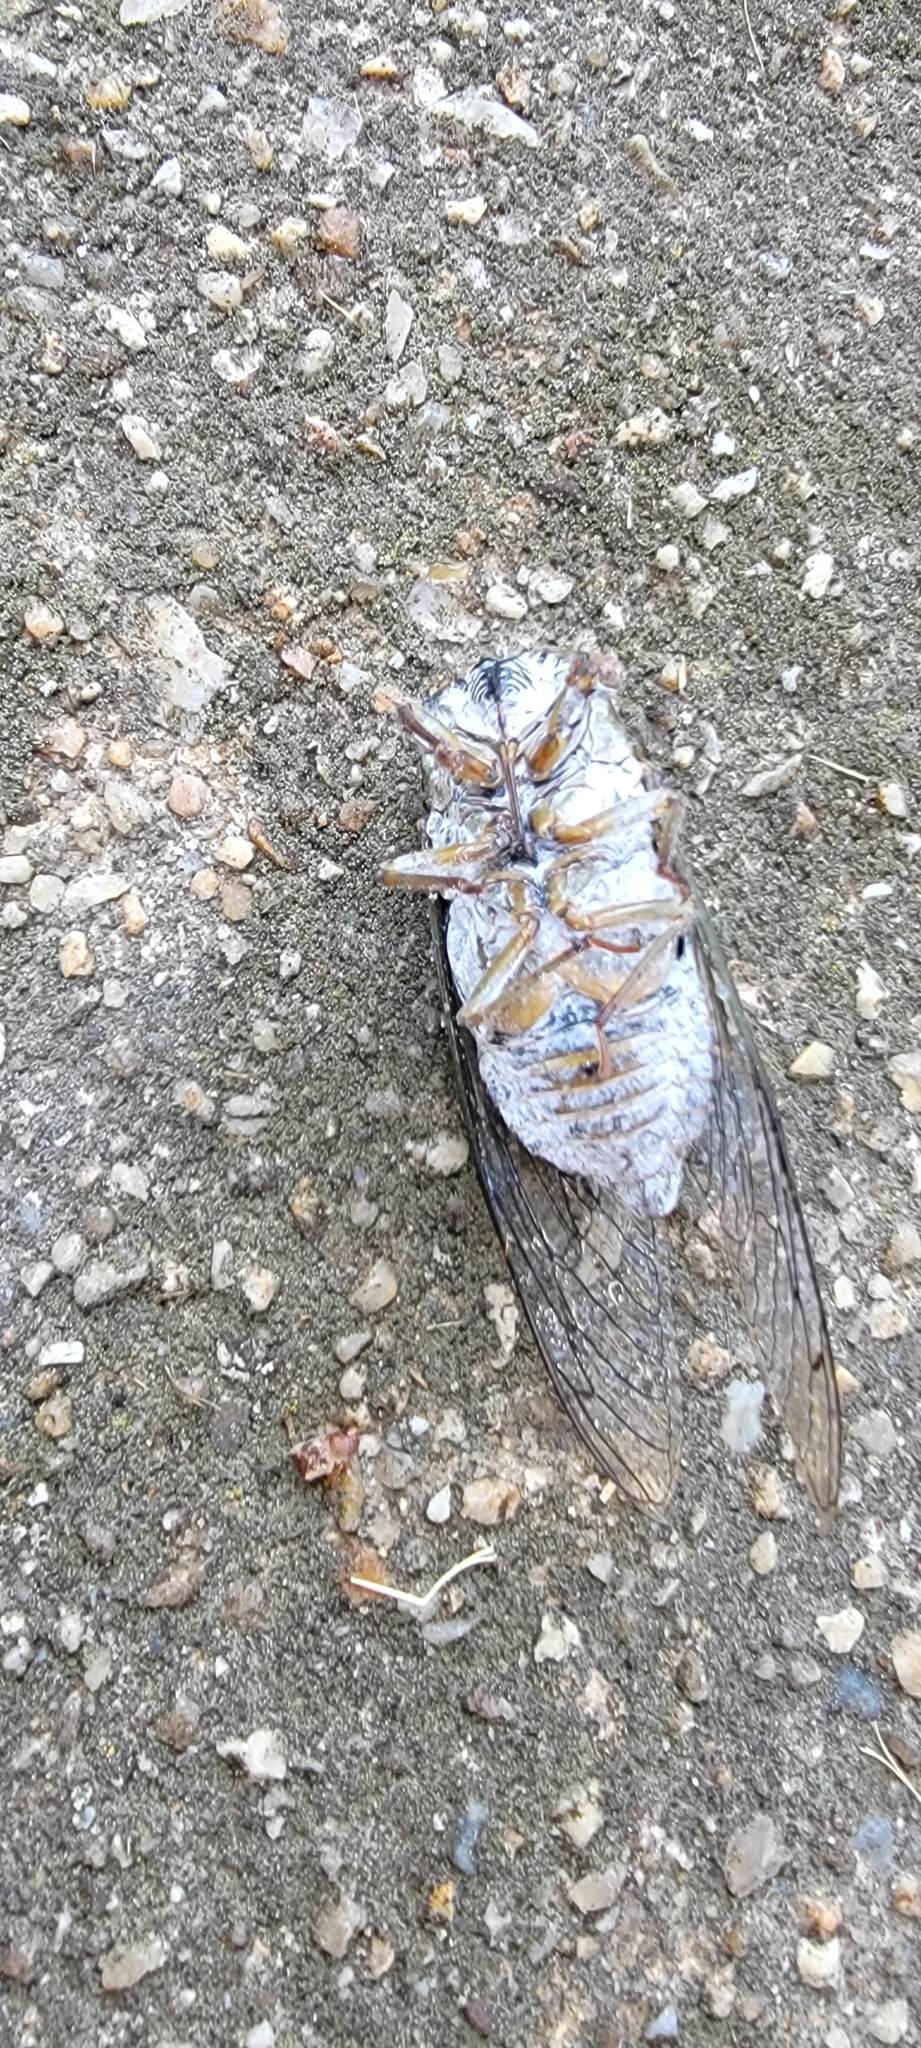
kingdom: Animalia
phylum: Arthropoda
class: Insecta
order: Hemiptera
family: Cicadidae
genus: Diceroprocta
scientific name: Diceroprocta grossa
